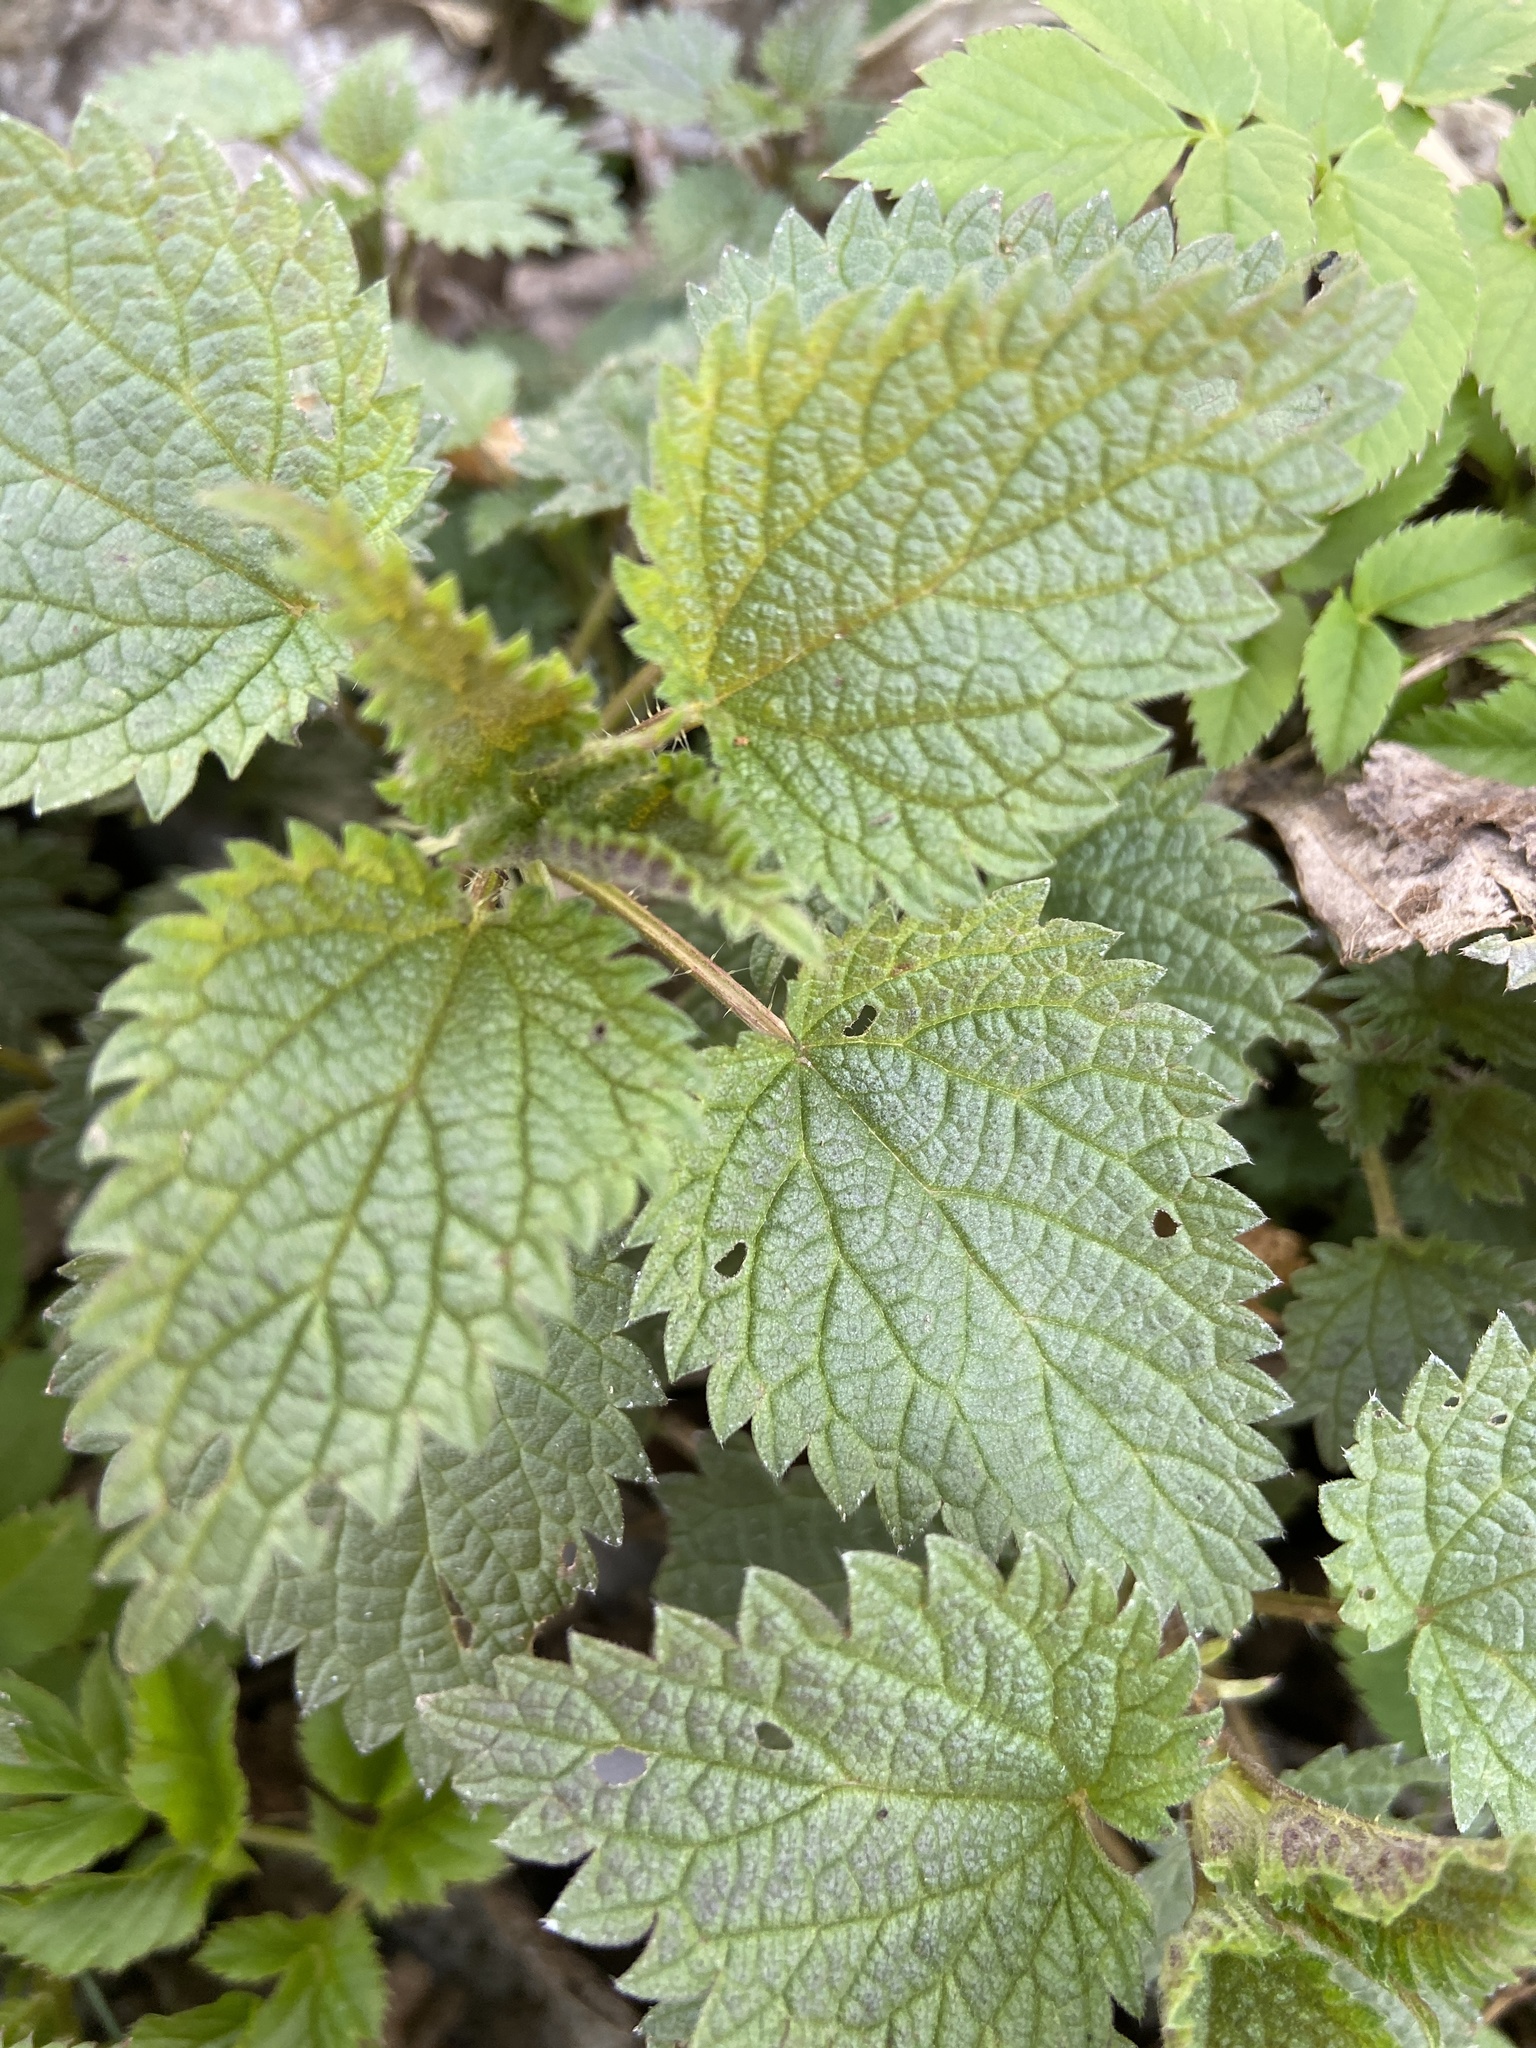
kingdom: Plantae
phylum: Tracheophyta
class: Magnoliopsida
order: Rosales
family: Urticaceae
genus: Urtica
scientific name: Urtica dioica
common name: Common nettle
